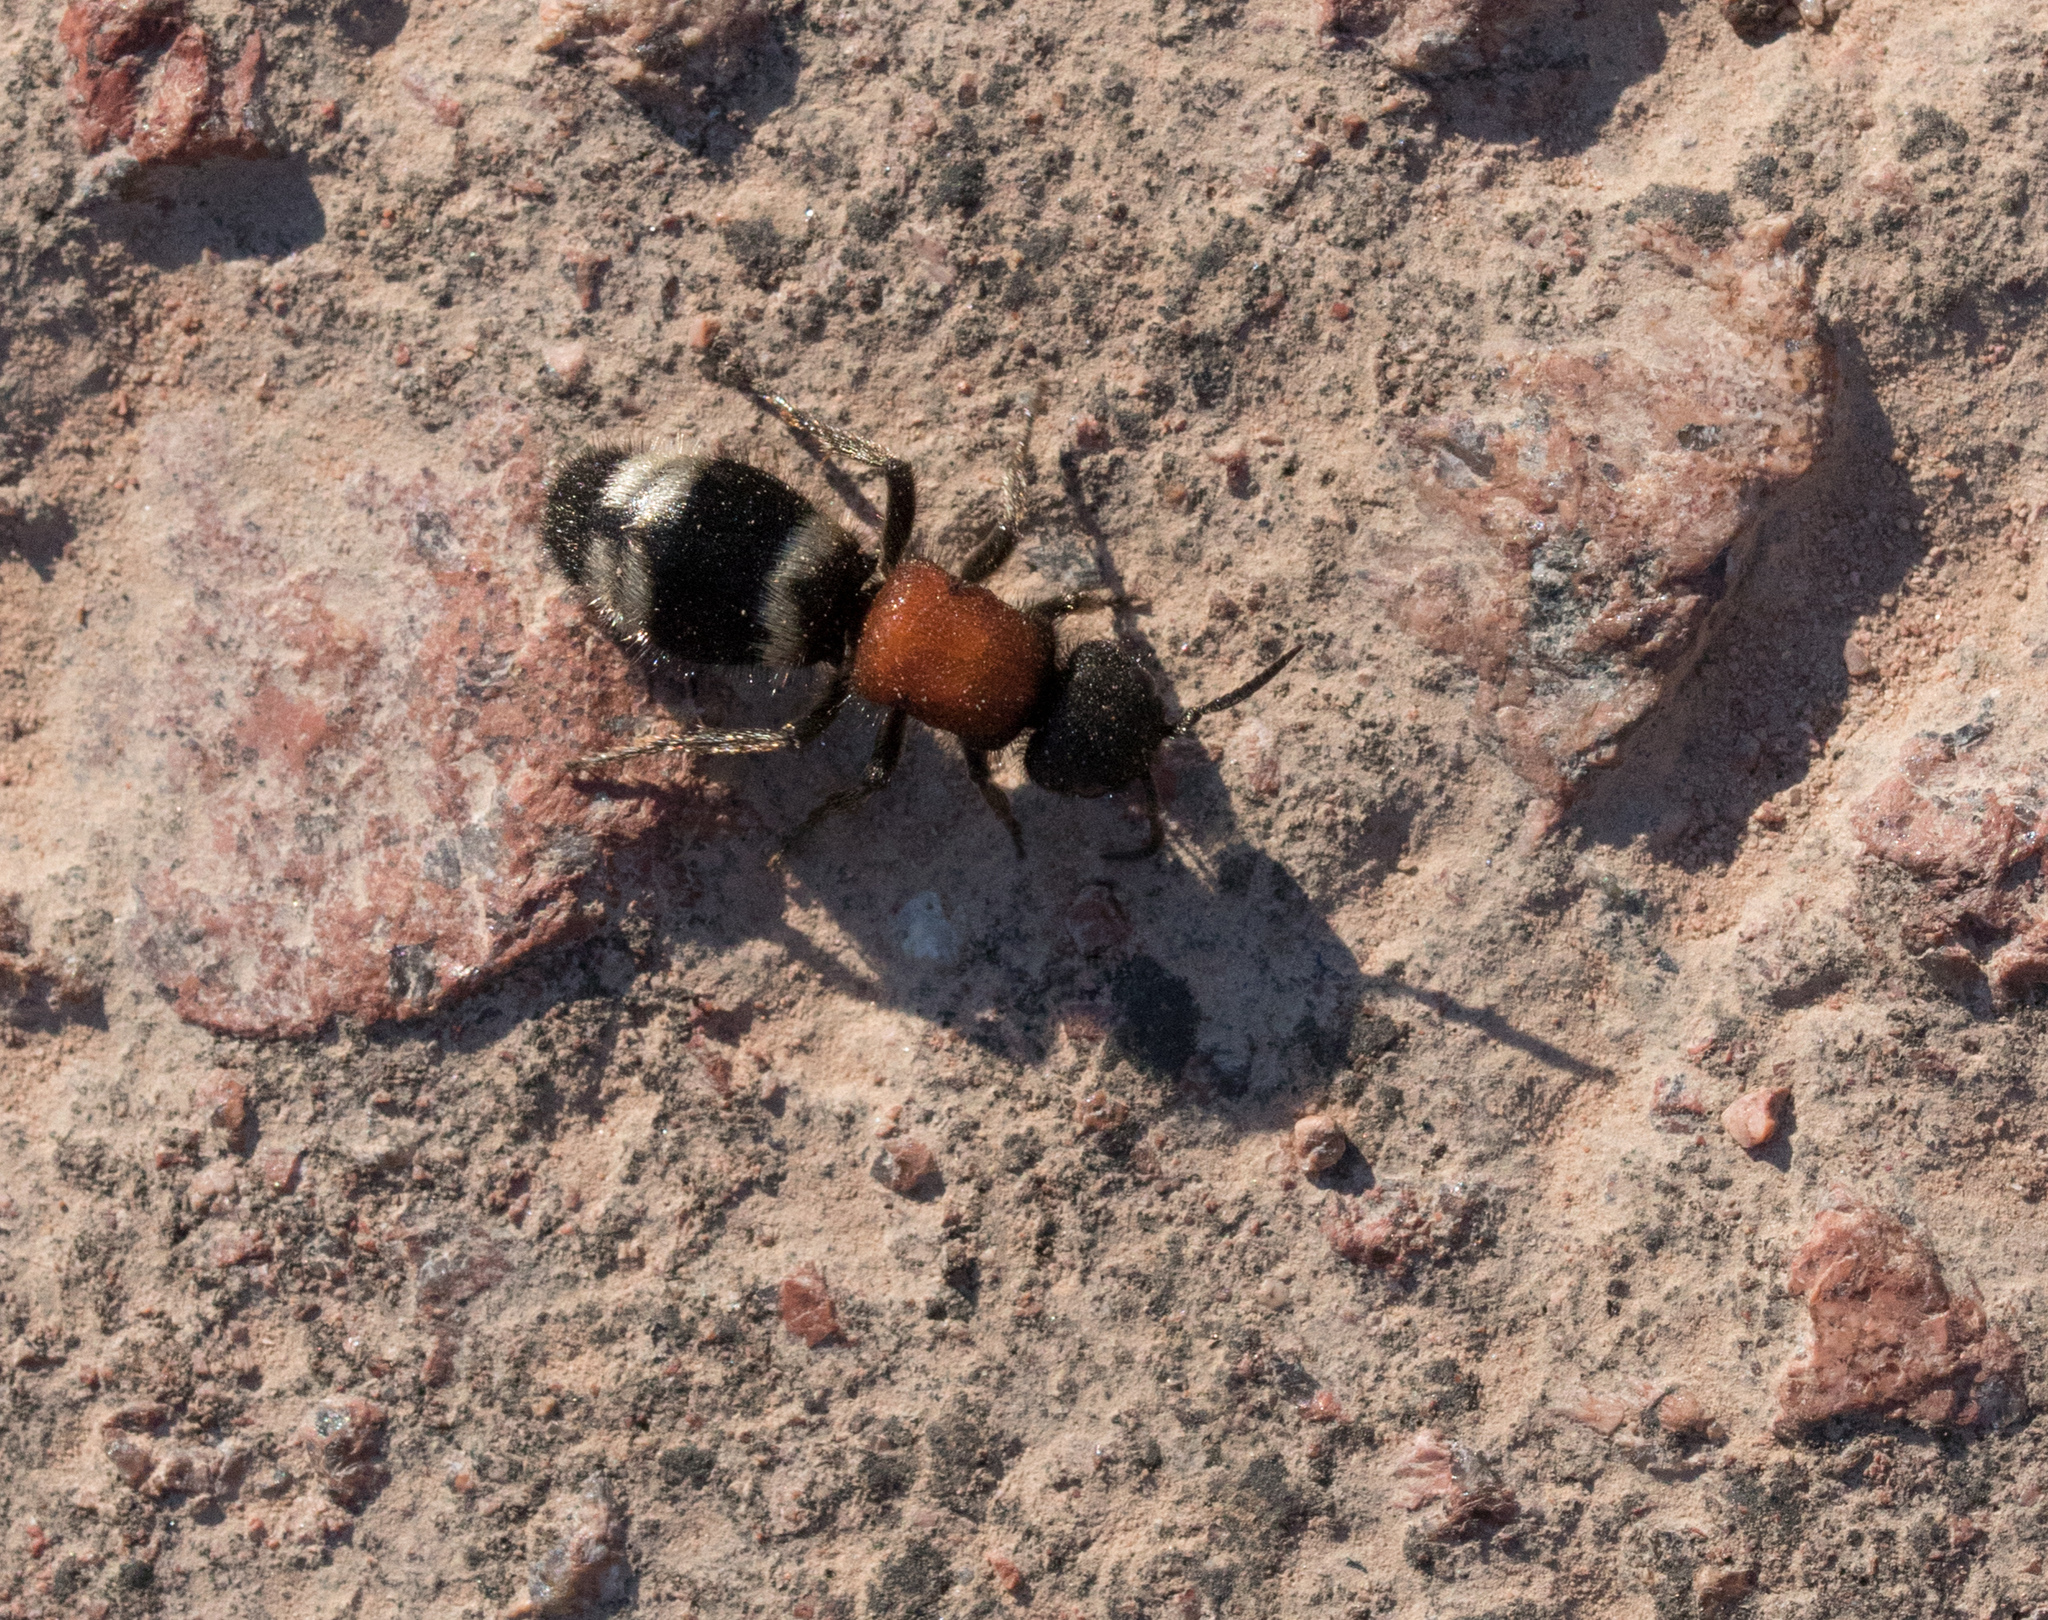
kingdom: Animalia
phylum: Arthropoda
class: Insecta
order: Hymenoptera
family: Mutillidae
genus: Mutilla
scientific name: Mutilla europaea
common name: Large velvet ant
